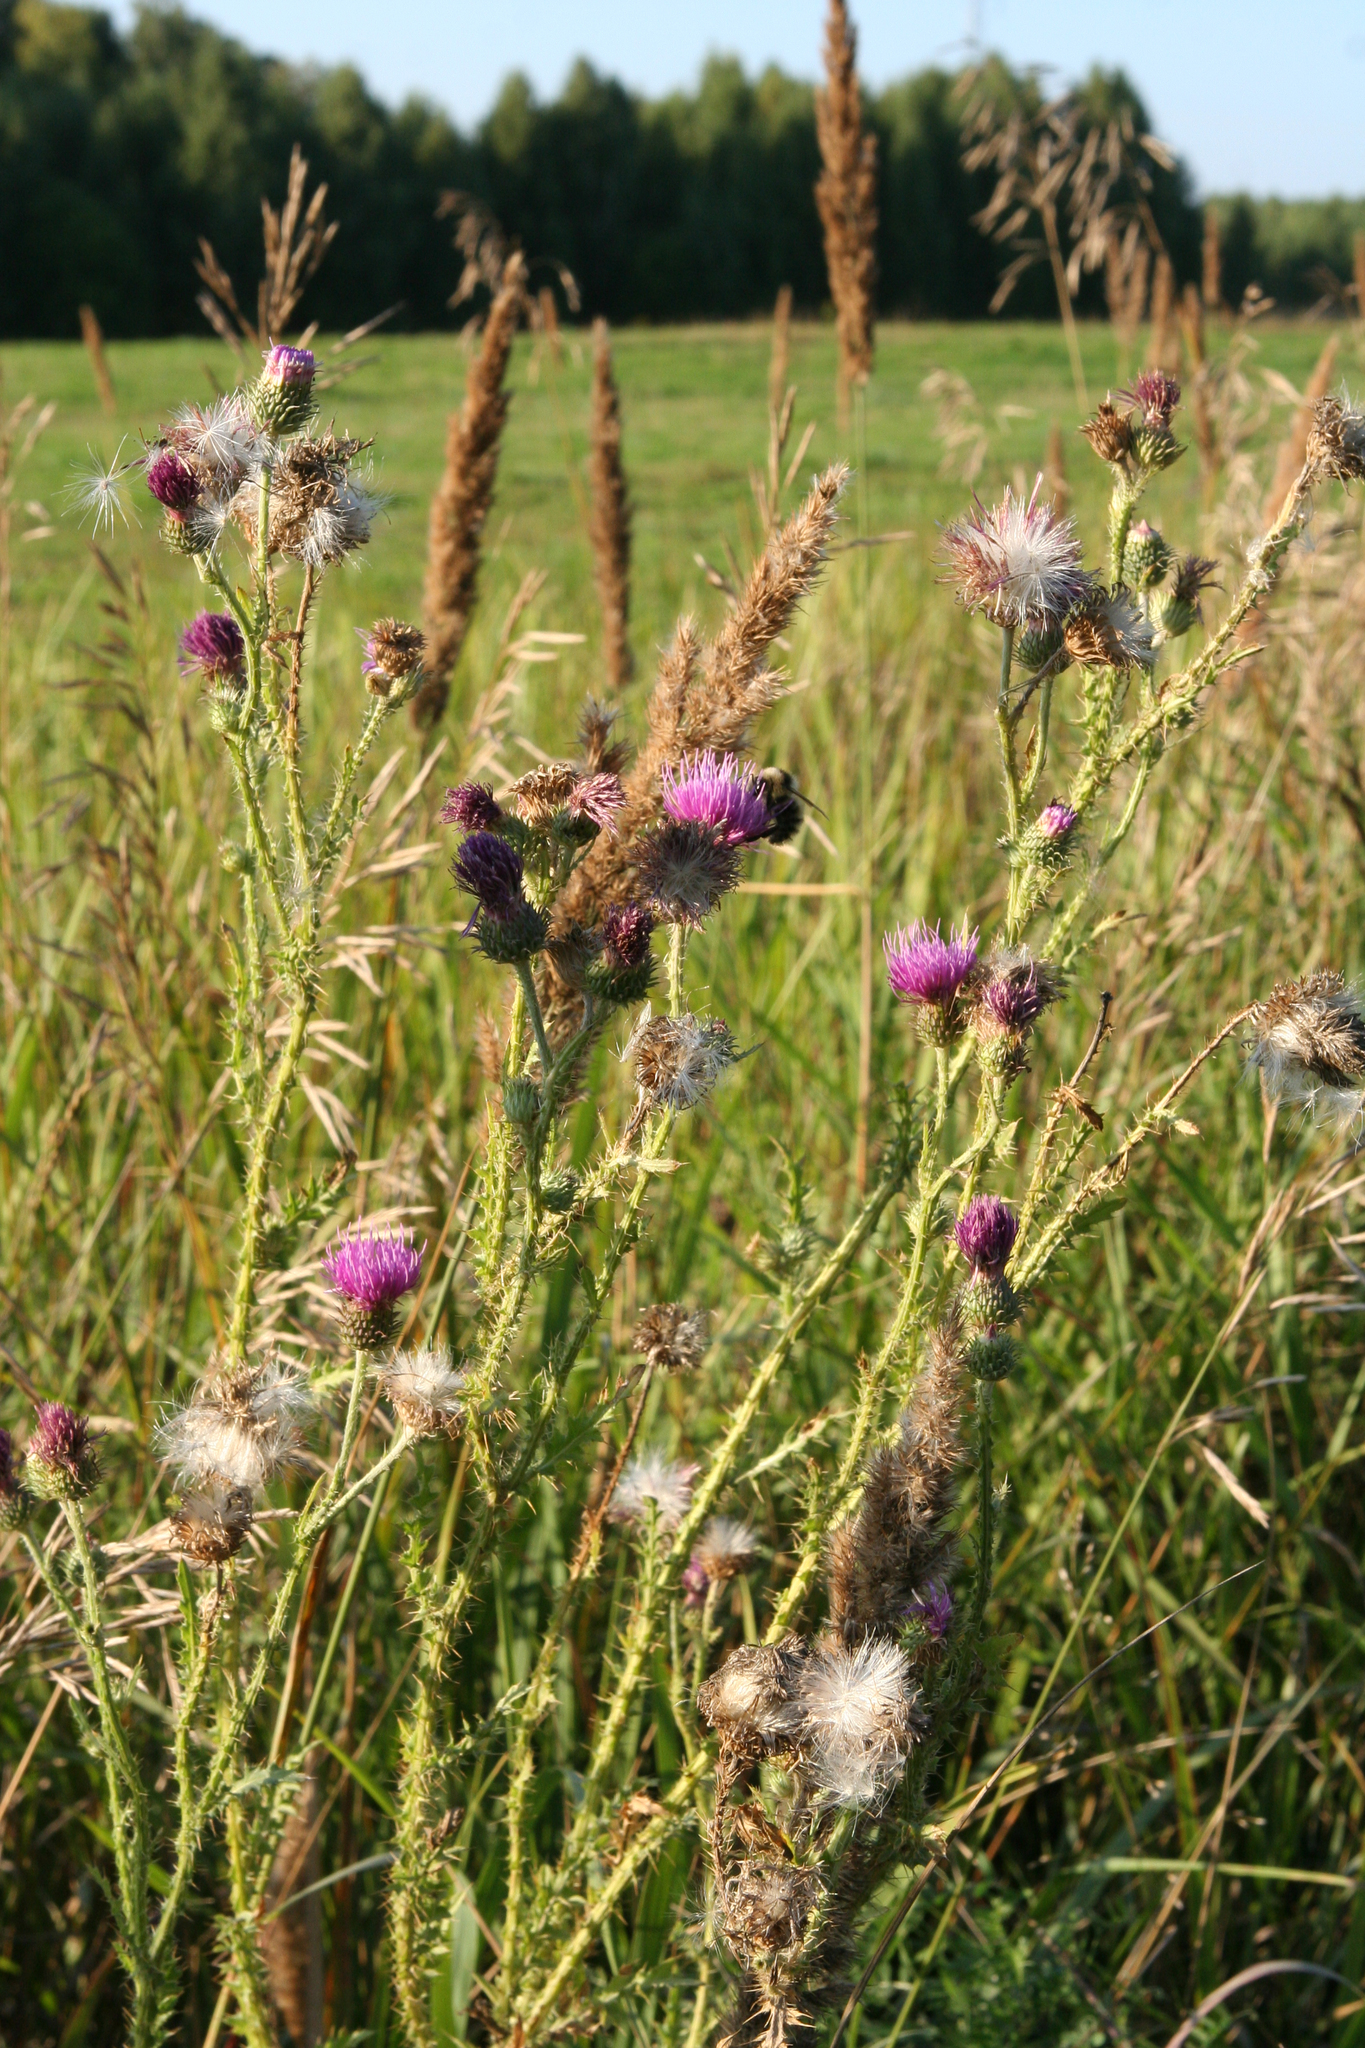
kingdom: Plantae
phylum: Tracheophyta
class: Magnoliopsida
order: Asterales
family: Asteraceae
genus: Carduus
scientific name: Carduus acanthoides
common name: Plumeless thistle
